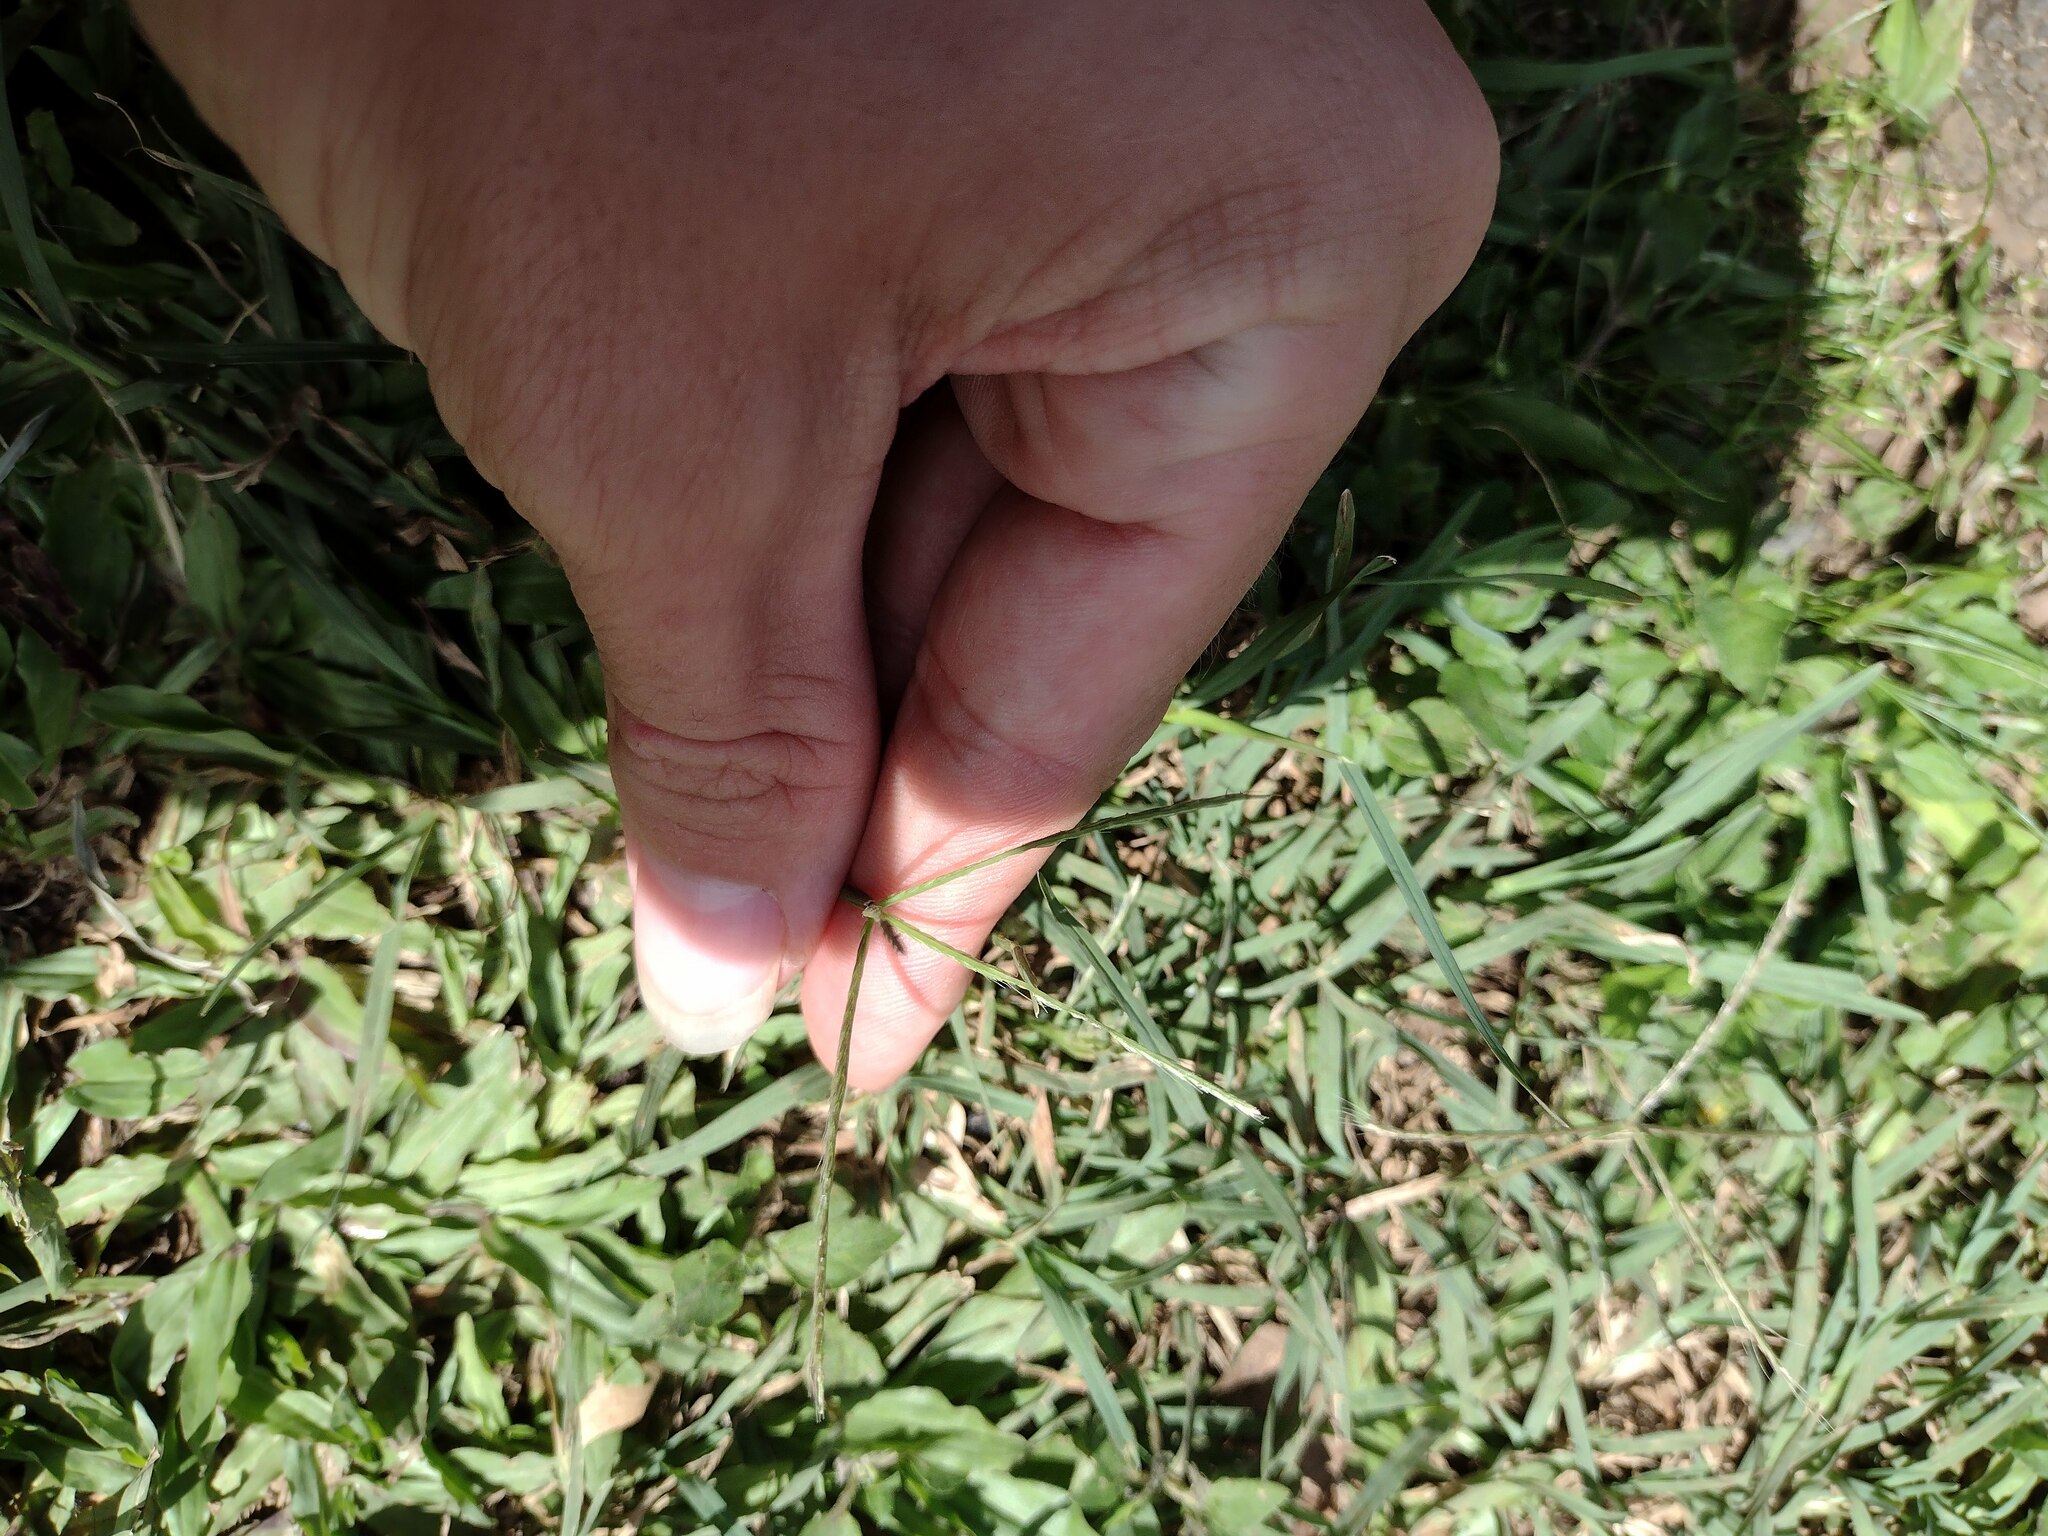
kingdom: Plantae
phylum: Tracheophyta
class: Liliopsida
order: Poales
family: Poaceae
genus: Cynodon
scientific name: Cynodon dactylon
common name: Bermuda grass
